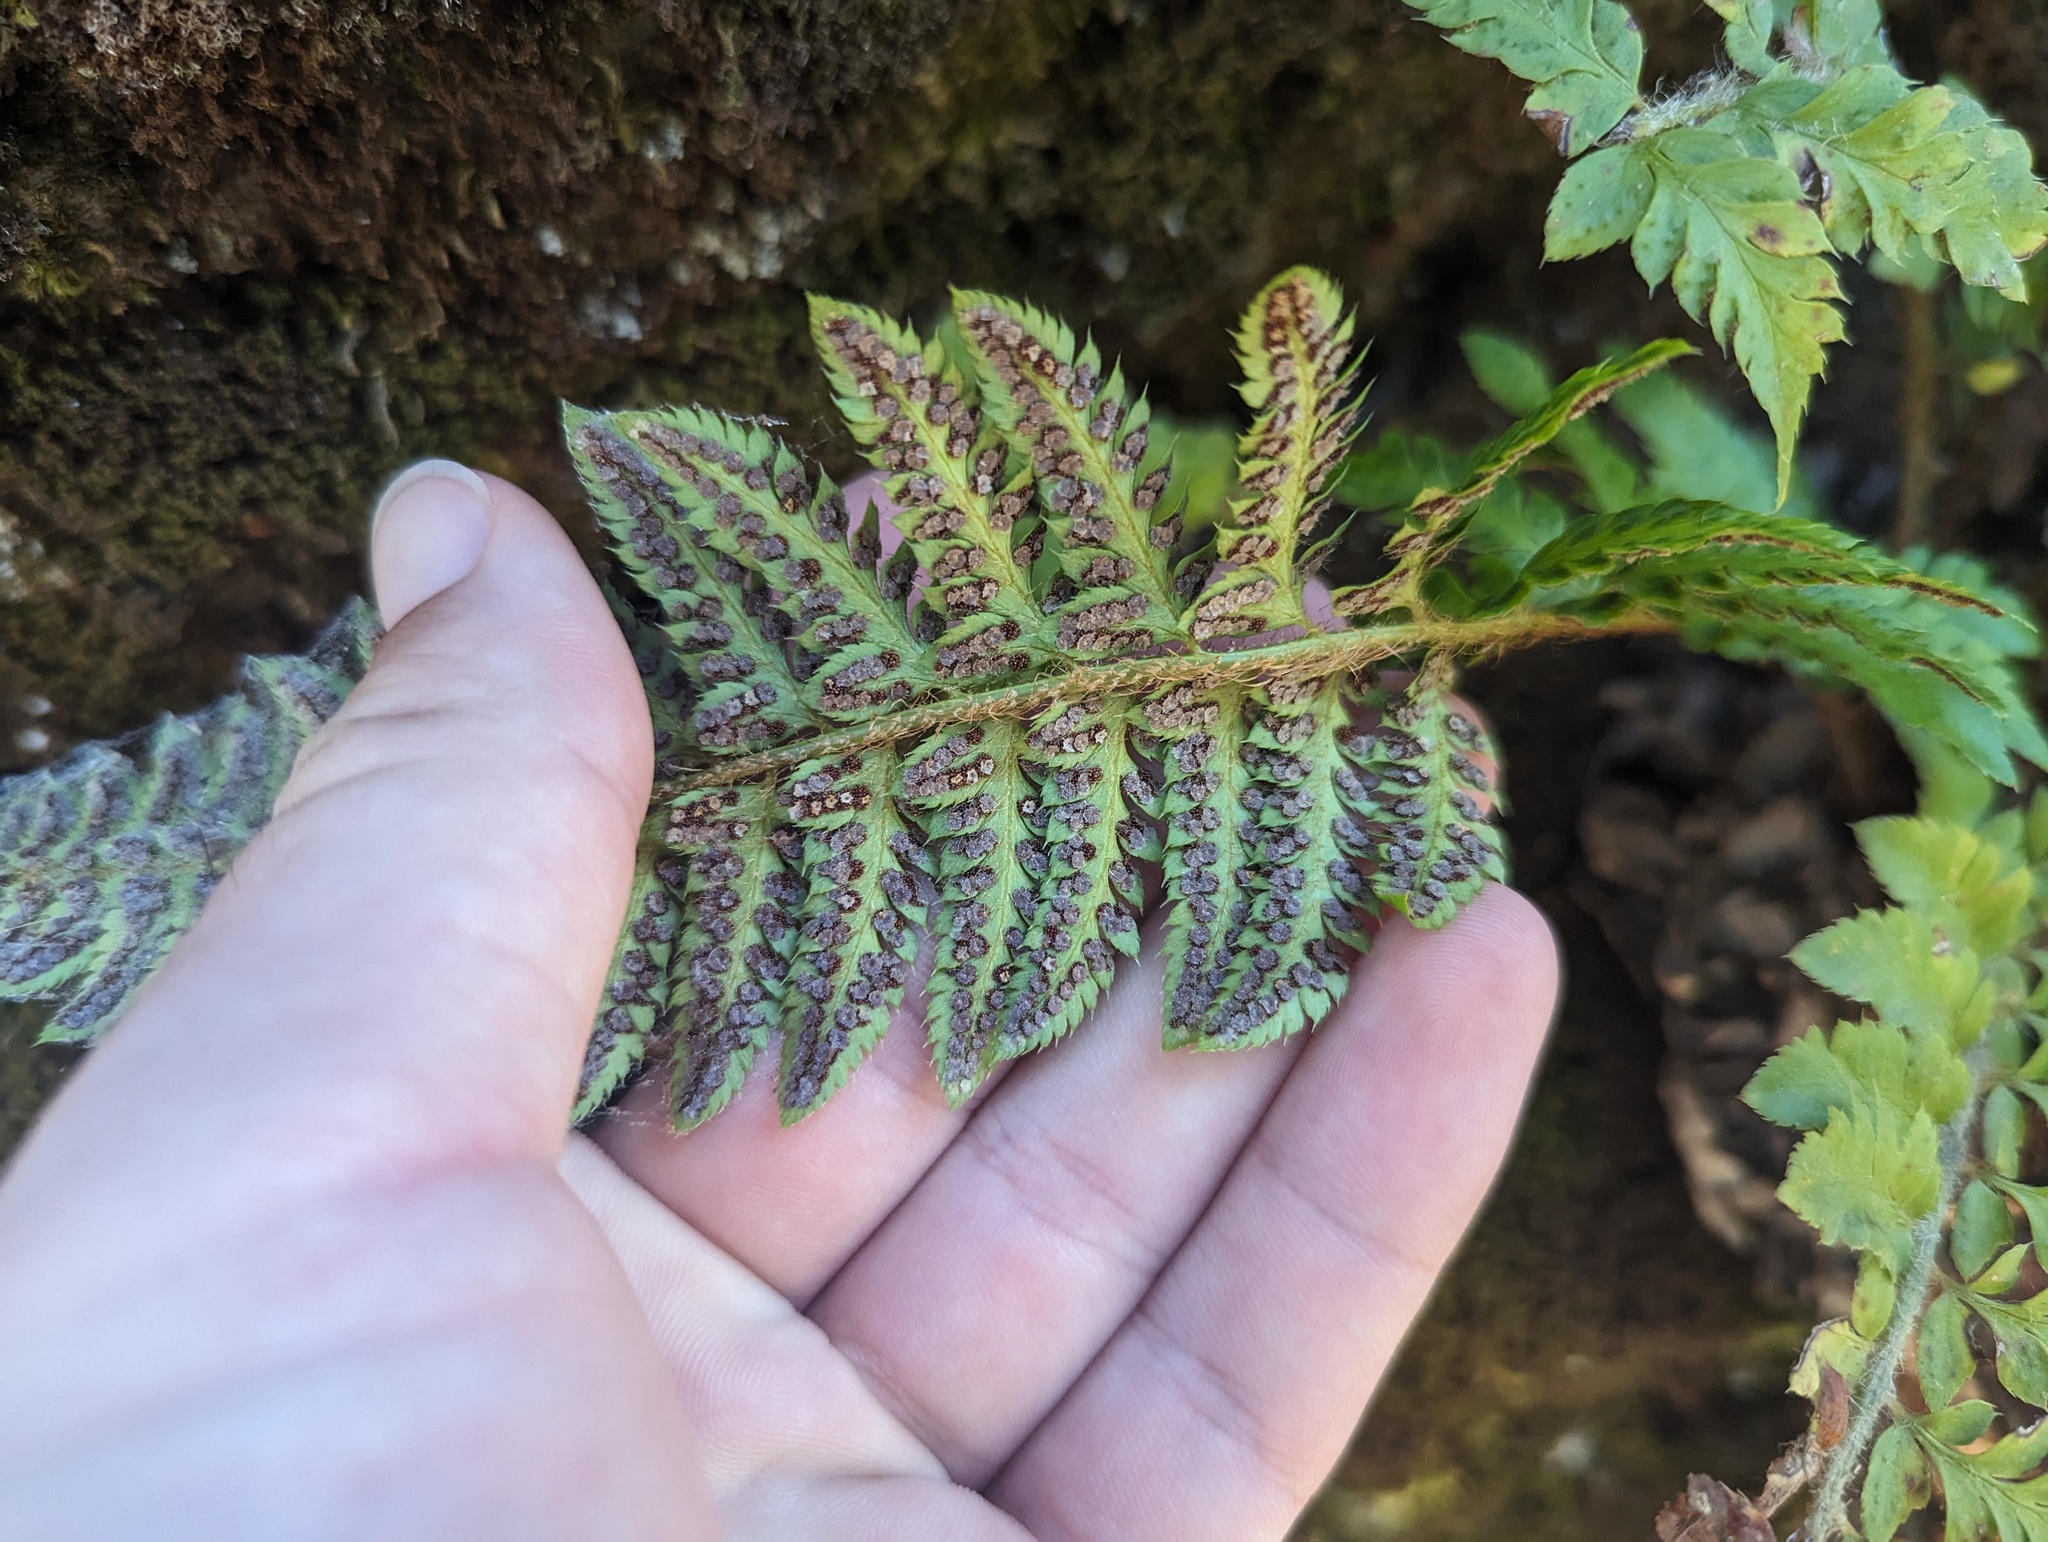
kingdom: Plantae
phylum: Tracheophyta
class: Polypodiopsida
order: Polypodiales
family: Dryopteridaceae
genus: Polystichum
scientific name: Polystichum californicum
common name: California sword fern
